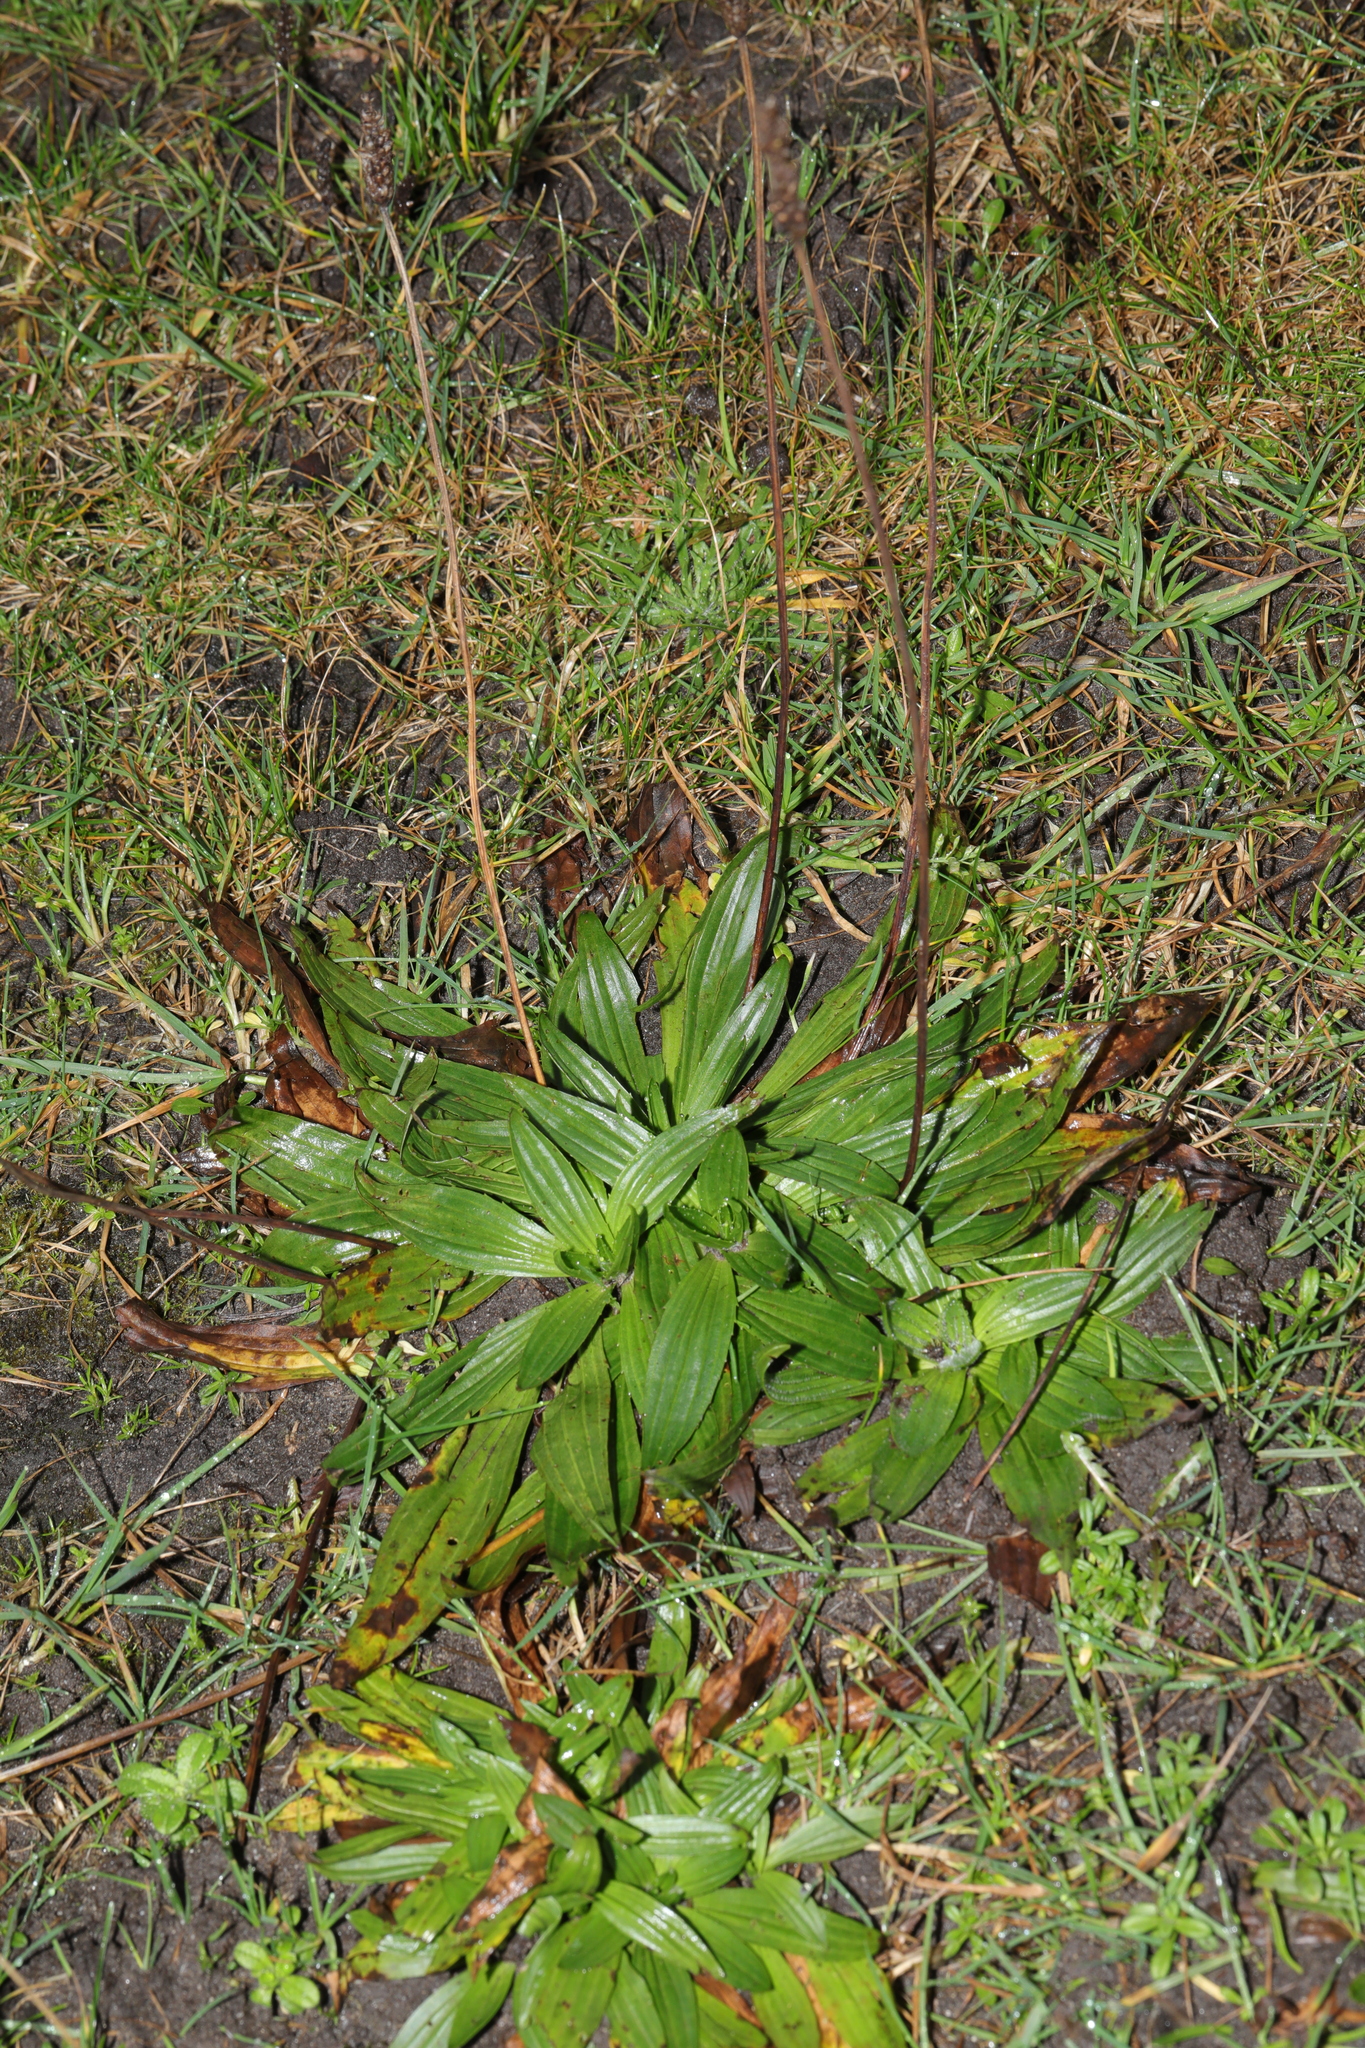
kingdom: Plantae
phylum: Tracheophyta
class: Magnoliopsida
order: Lamiales
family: Plantaginaceae
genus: Plantago
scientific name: Plantago lanceolata
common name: Ribwort plantain
